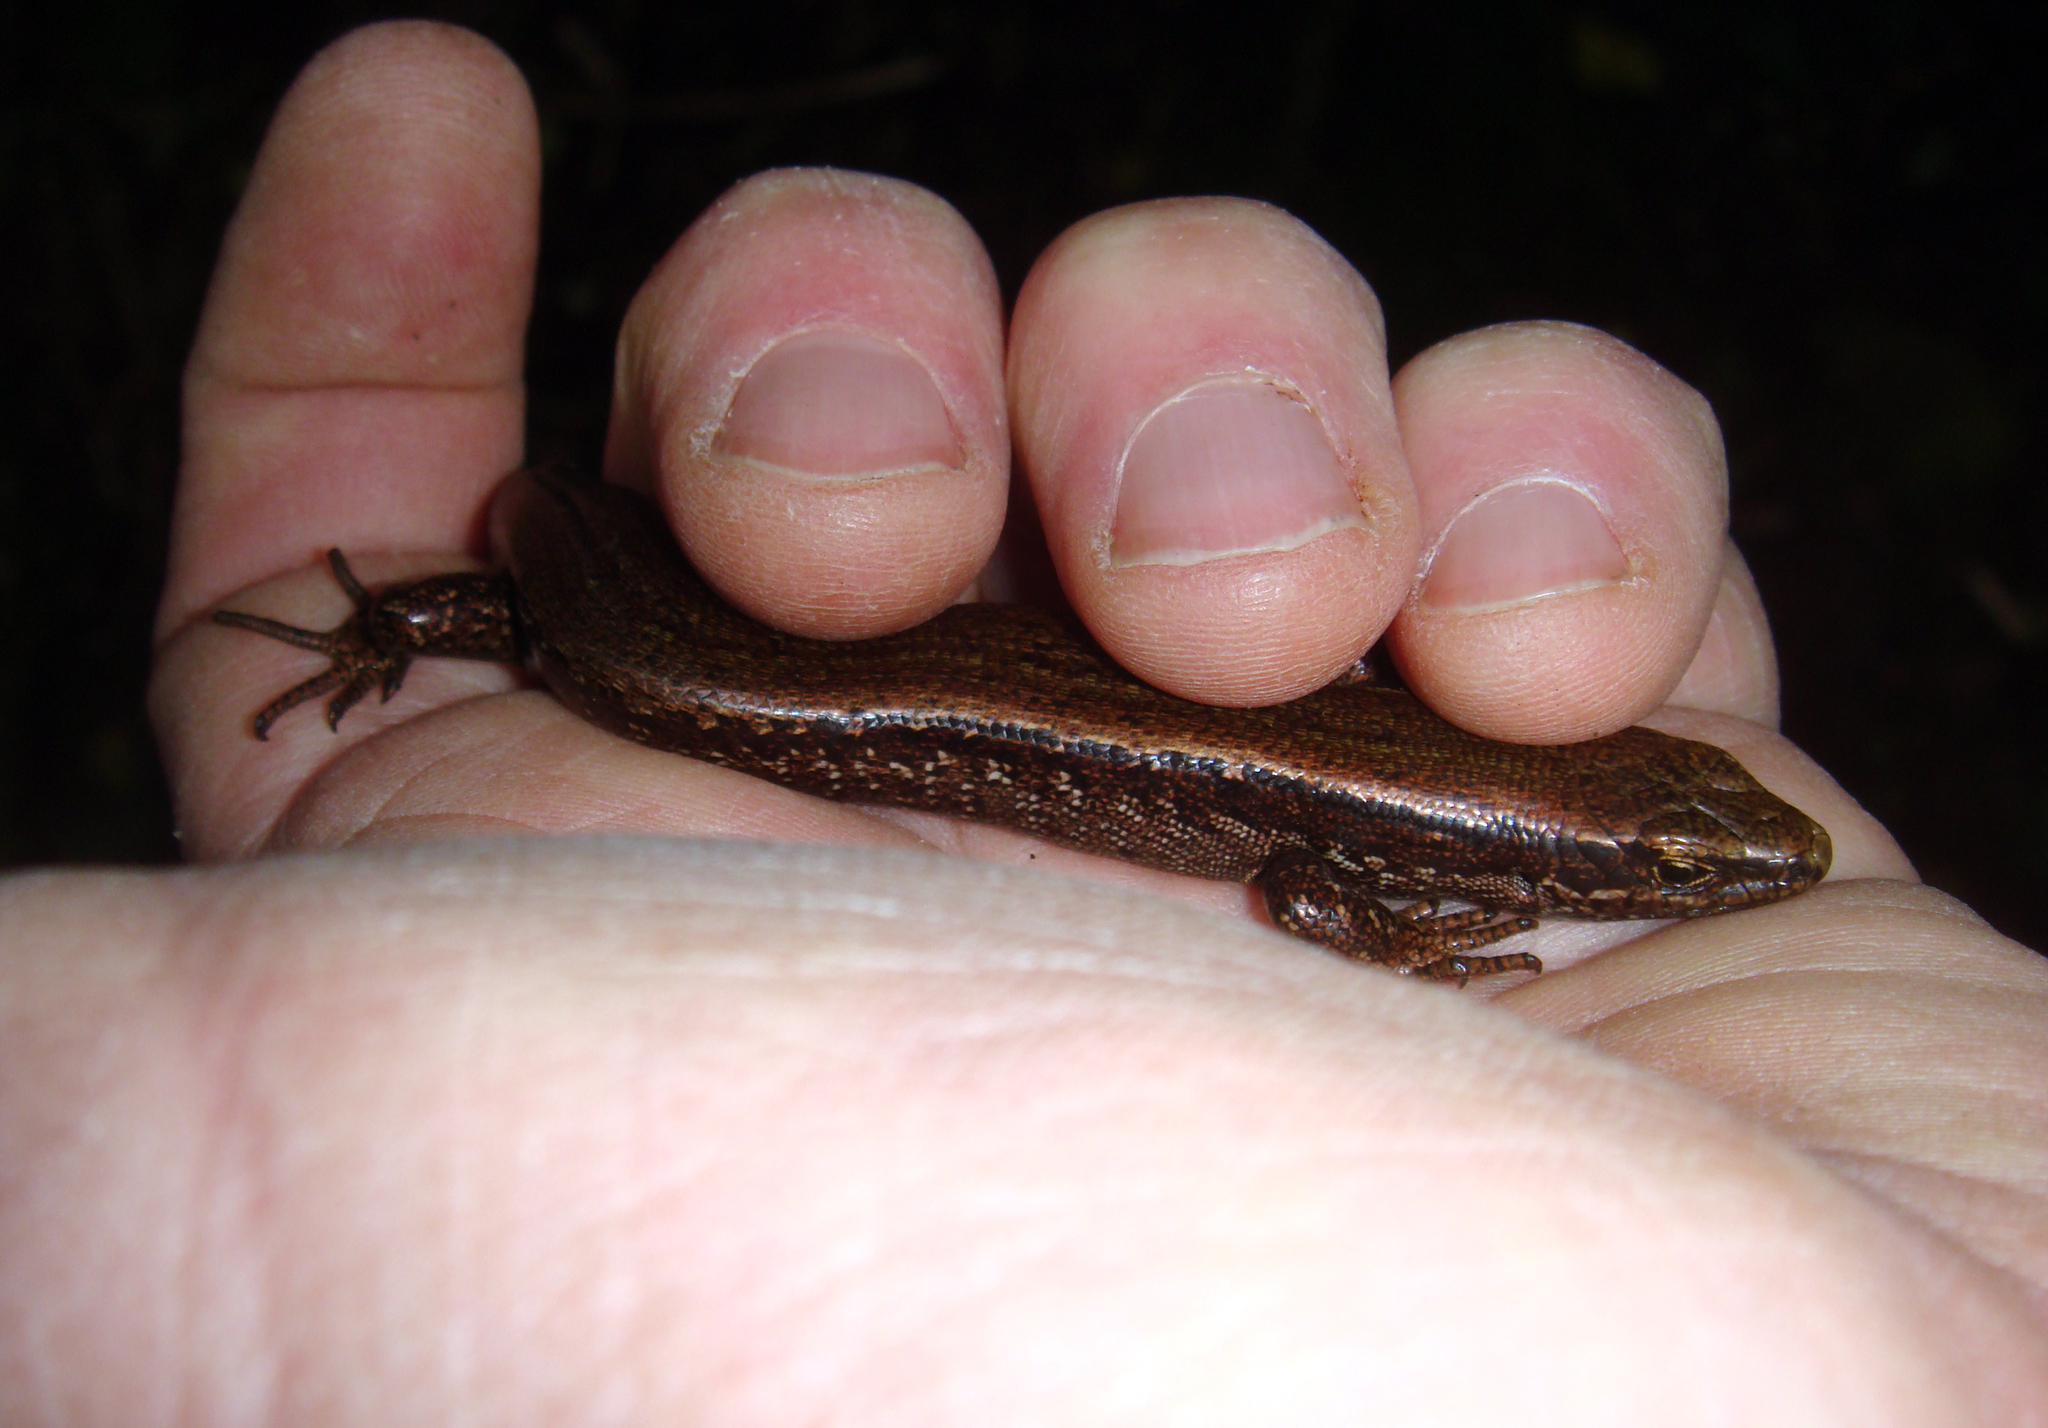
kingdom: Animalia
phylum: Chordata
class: Squamata
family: Scincidae
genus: Oligosoma
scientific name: Oligosoma nigriplantare
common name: Chathams skink
